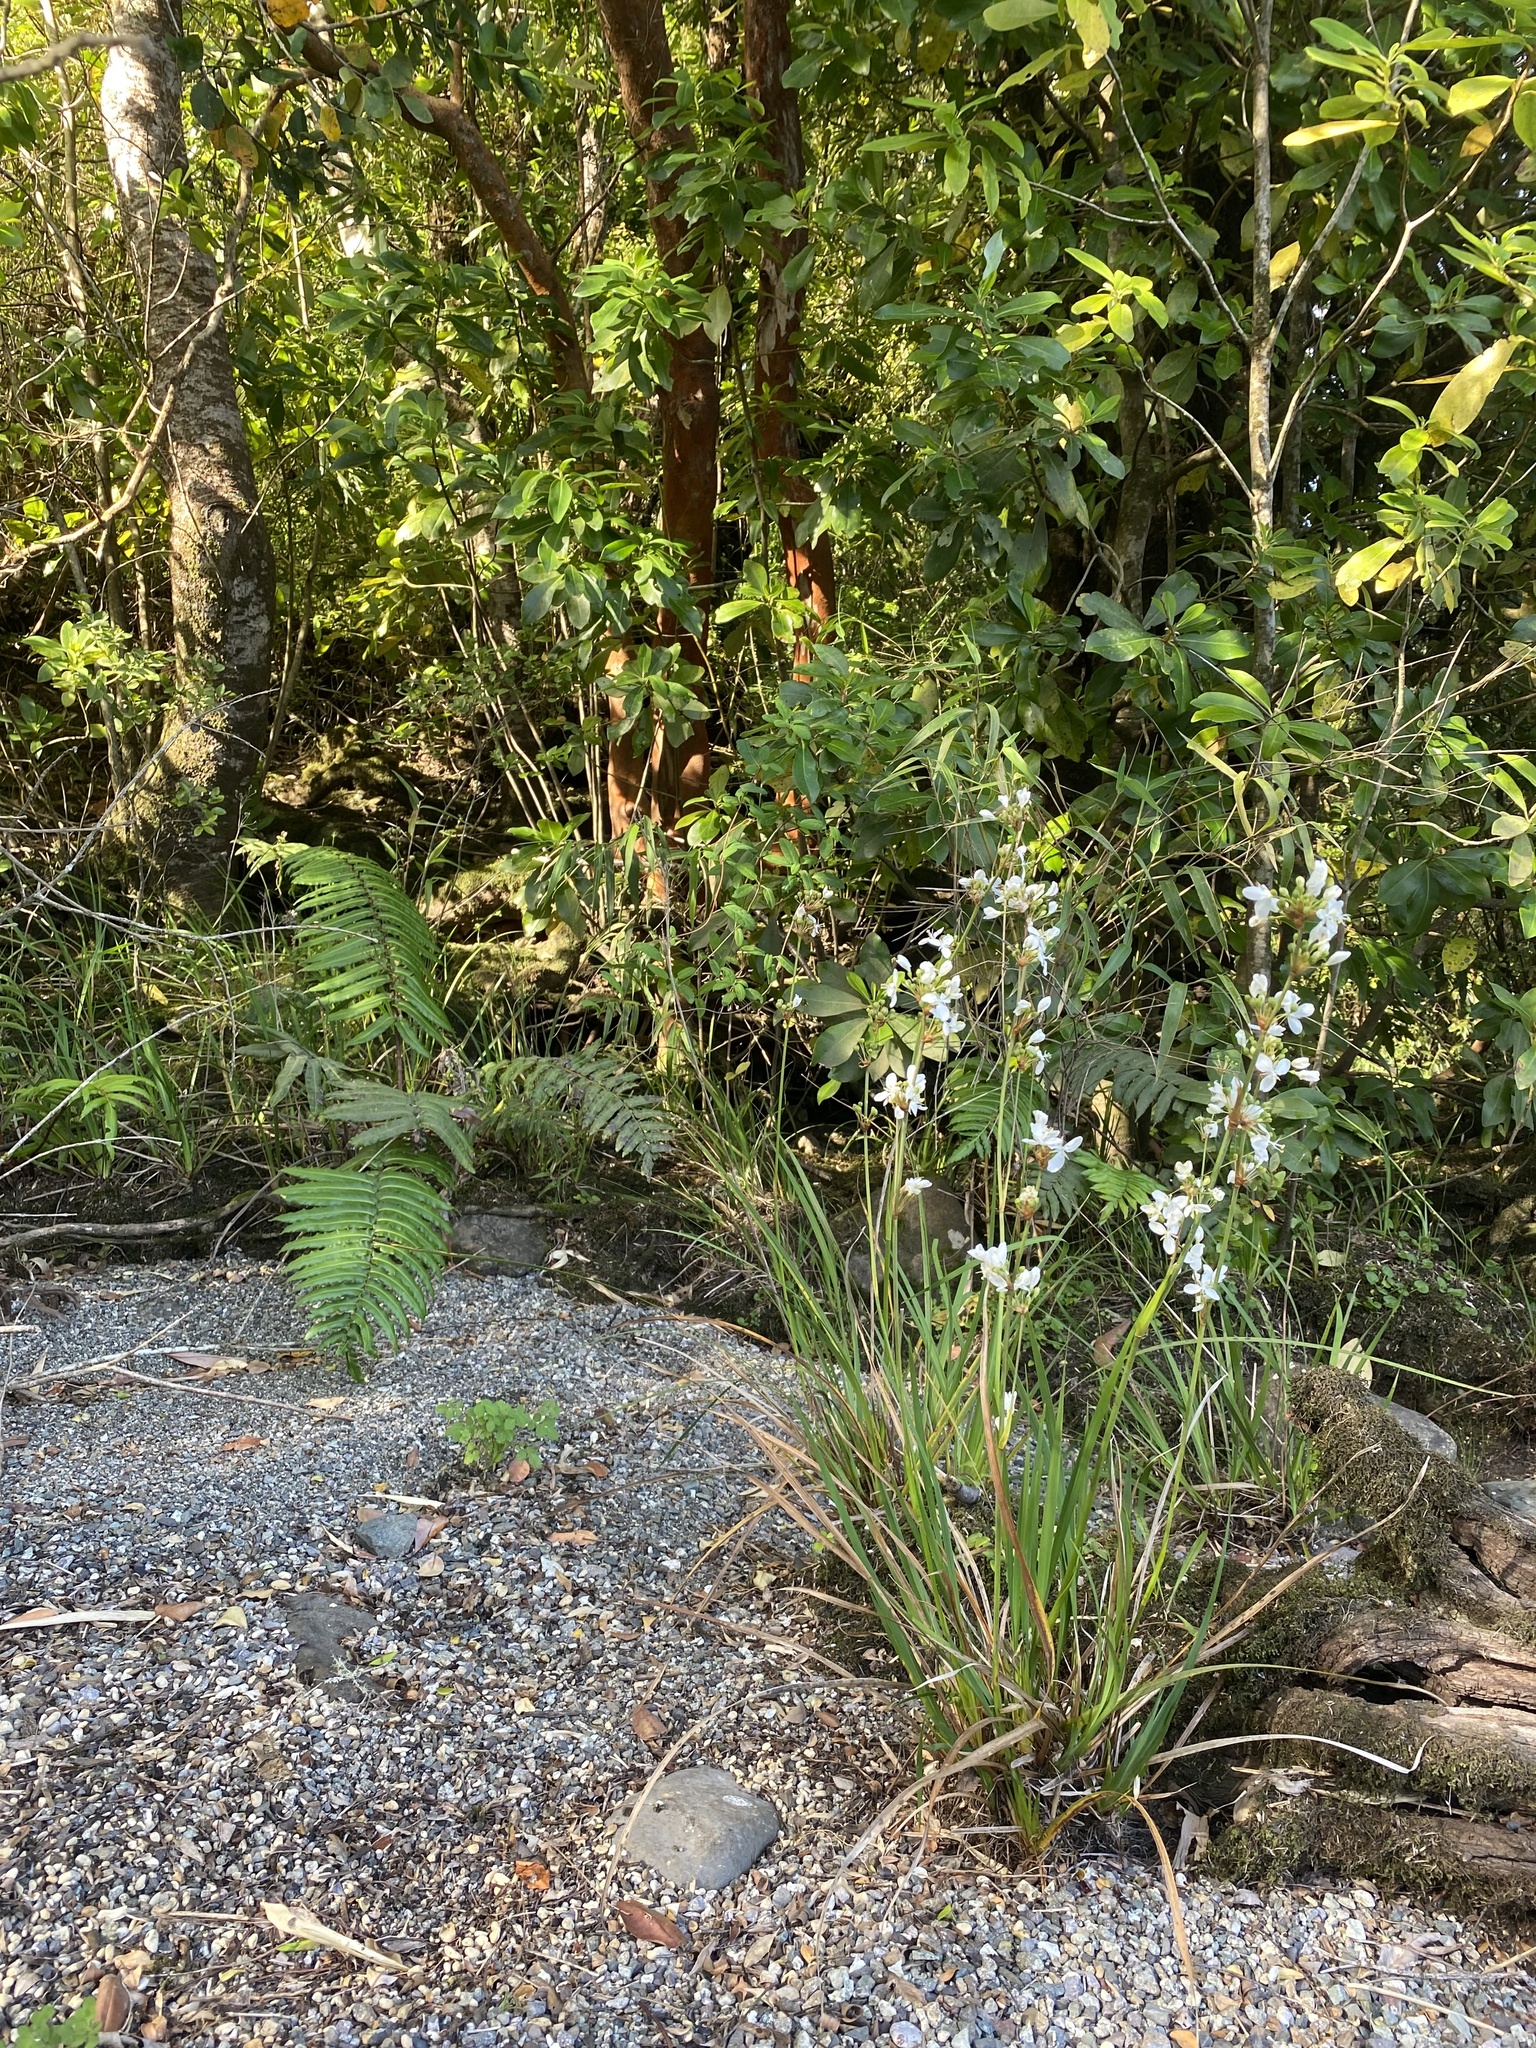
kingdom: Plantae
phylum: Tracheophyta
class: Liliopsida
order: Asparagales
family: Iridaceae
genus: Libertia
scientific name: Libertia chilensis
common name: Satin flower
